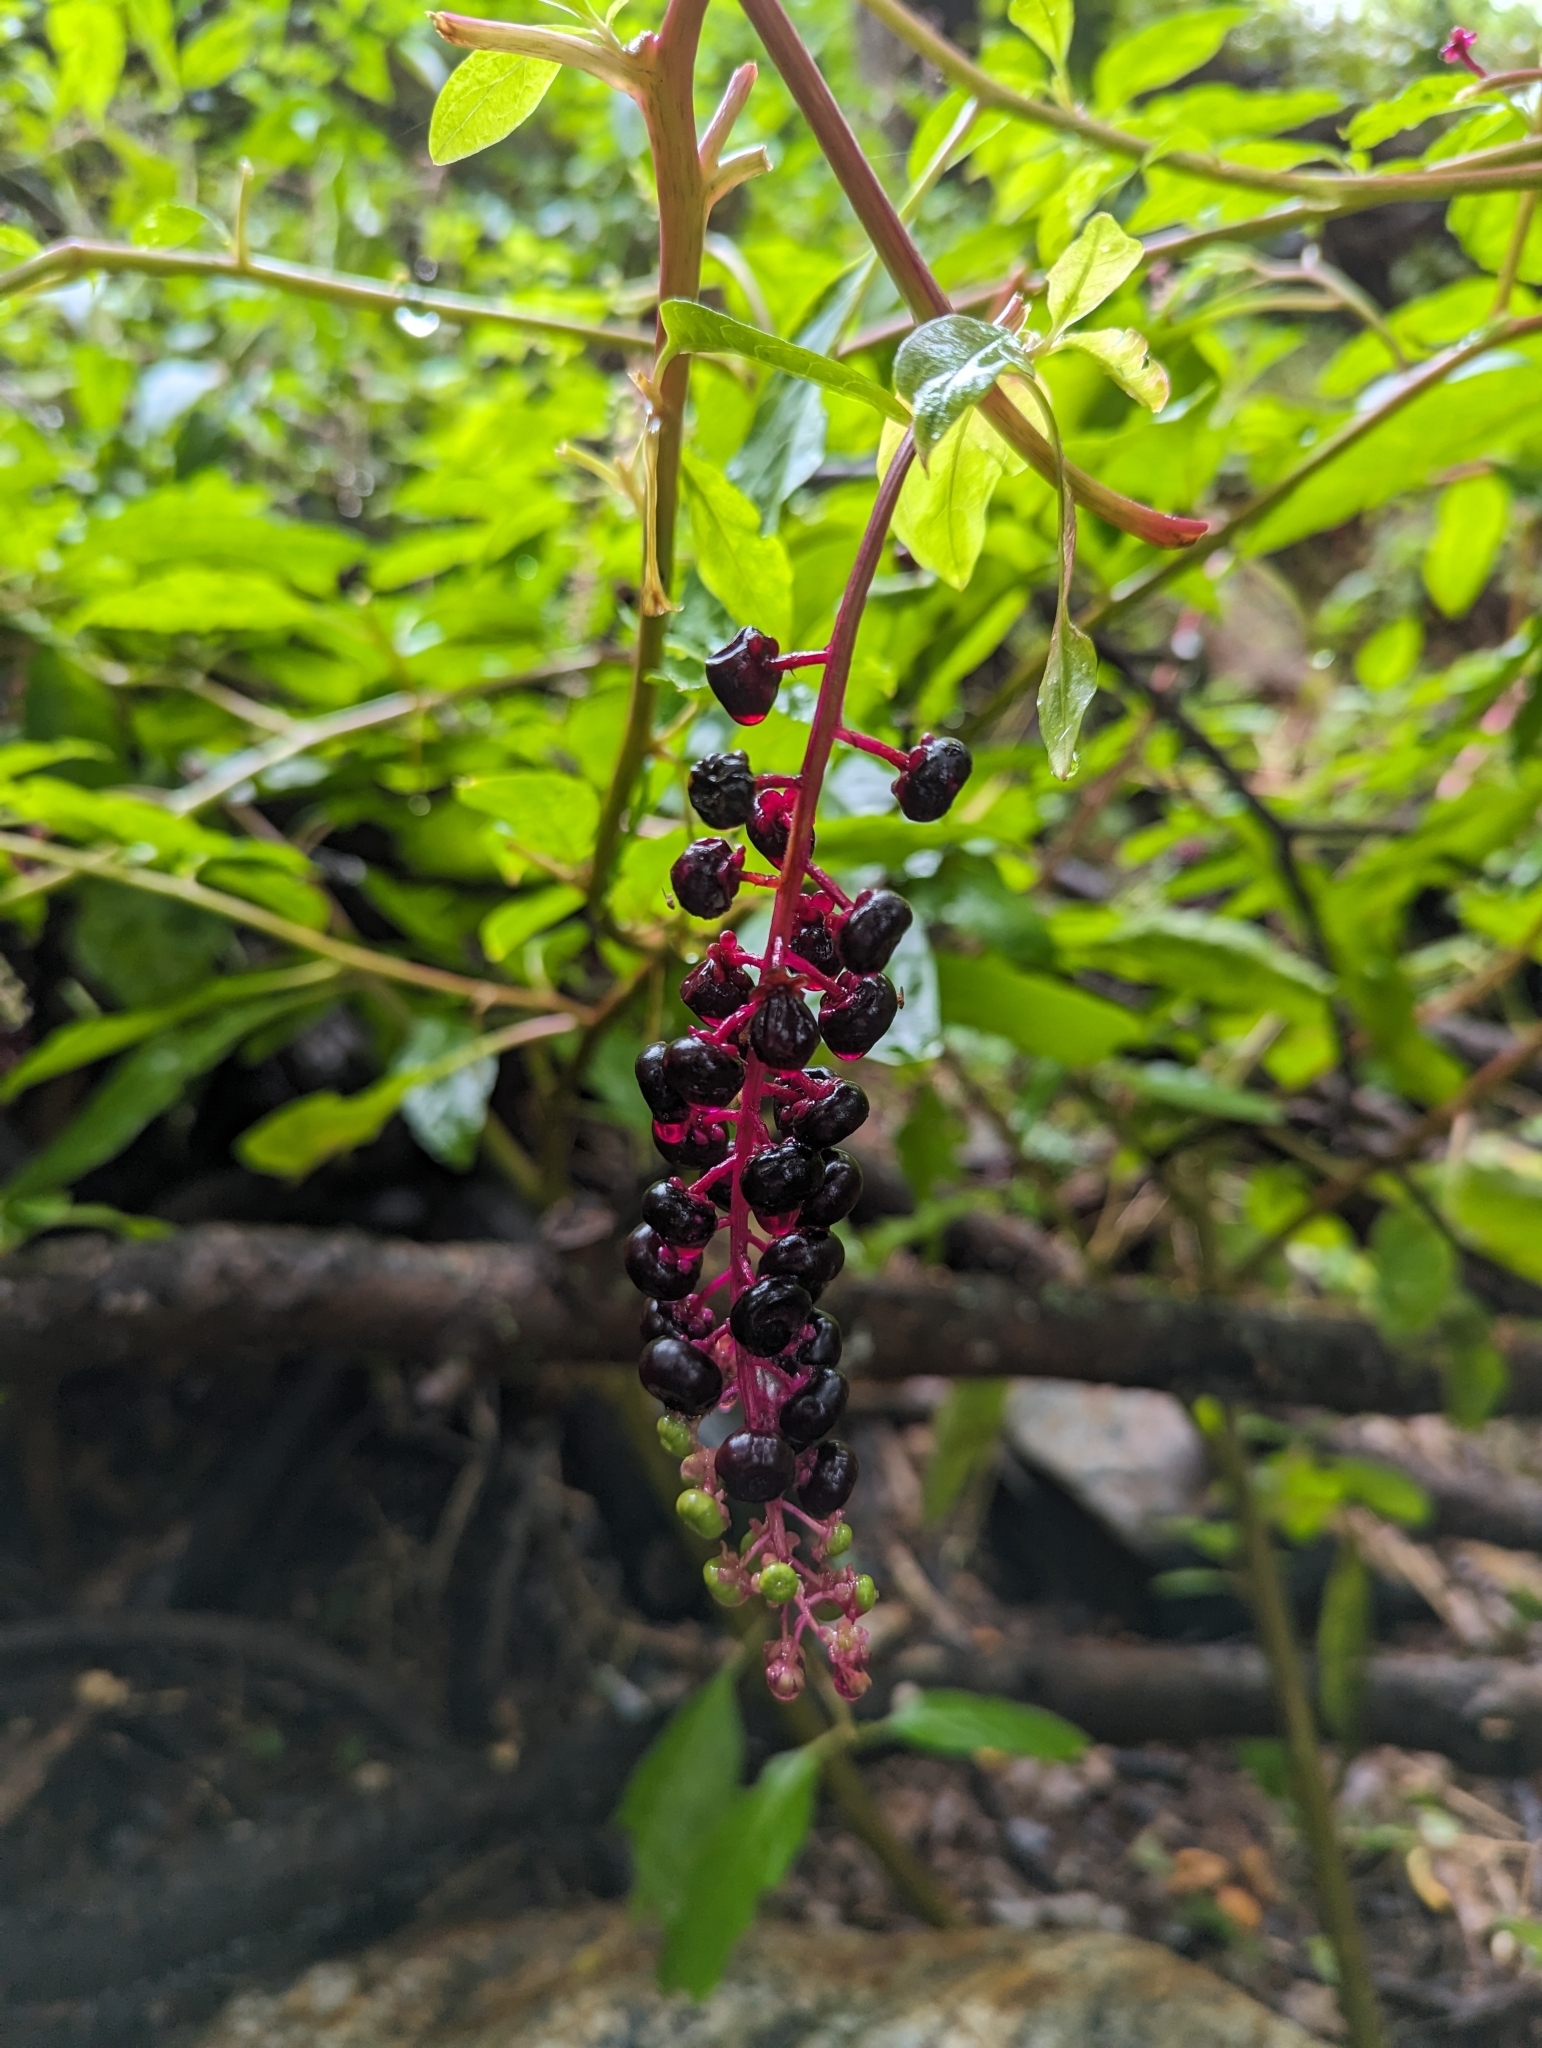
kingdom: Plantae
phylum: Tracheophyta
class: Magnoliopsida
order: Caryophyllales
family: Phytolaccaceae
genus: Phytolacca
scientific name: Phytolacca americana
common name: American pokeweed
